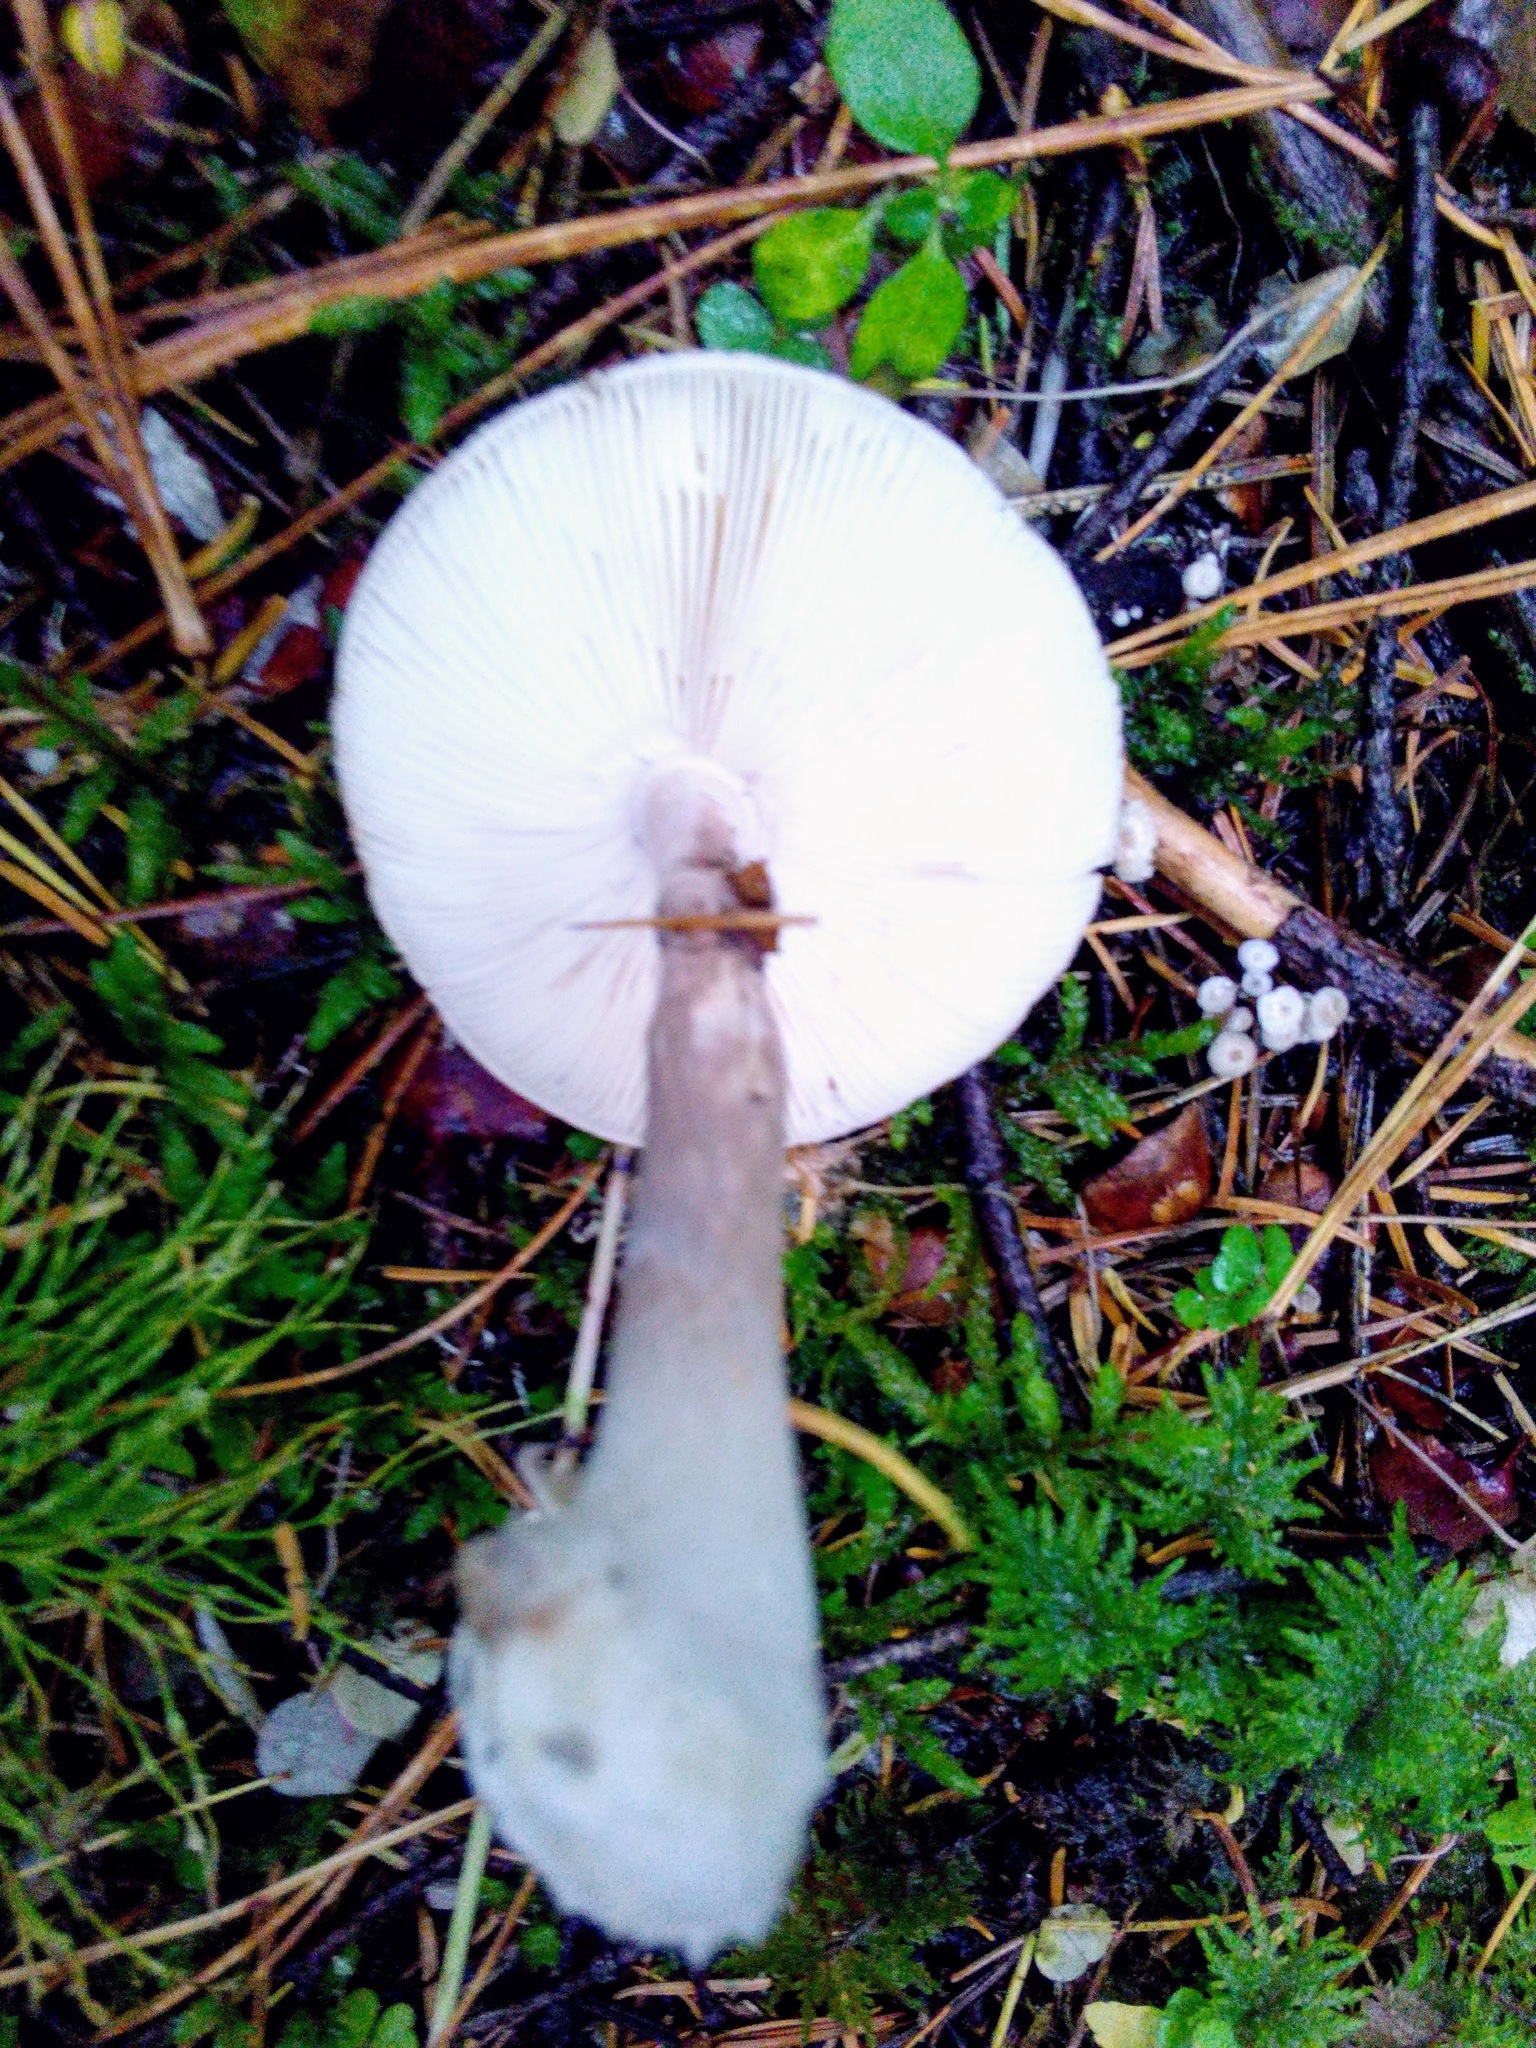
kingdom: Fungi
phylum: Basidiomycota
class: Agaricomycetes
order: Agaricales
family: Amanitaceae
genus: Amanita
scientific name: Amanita porphyria
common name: Grey veiled amanita
